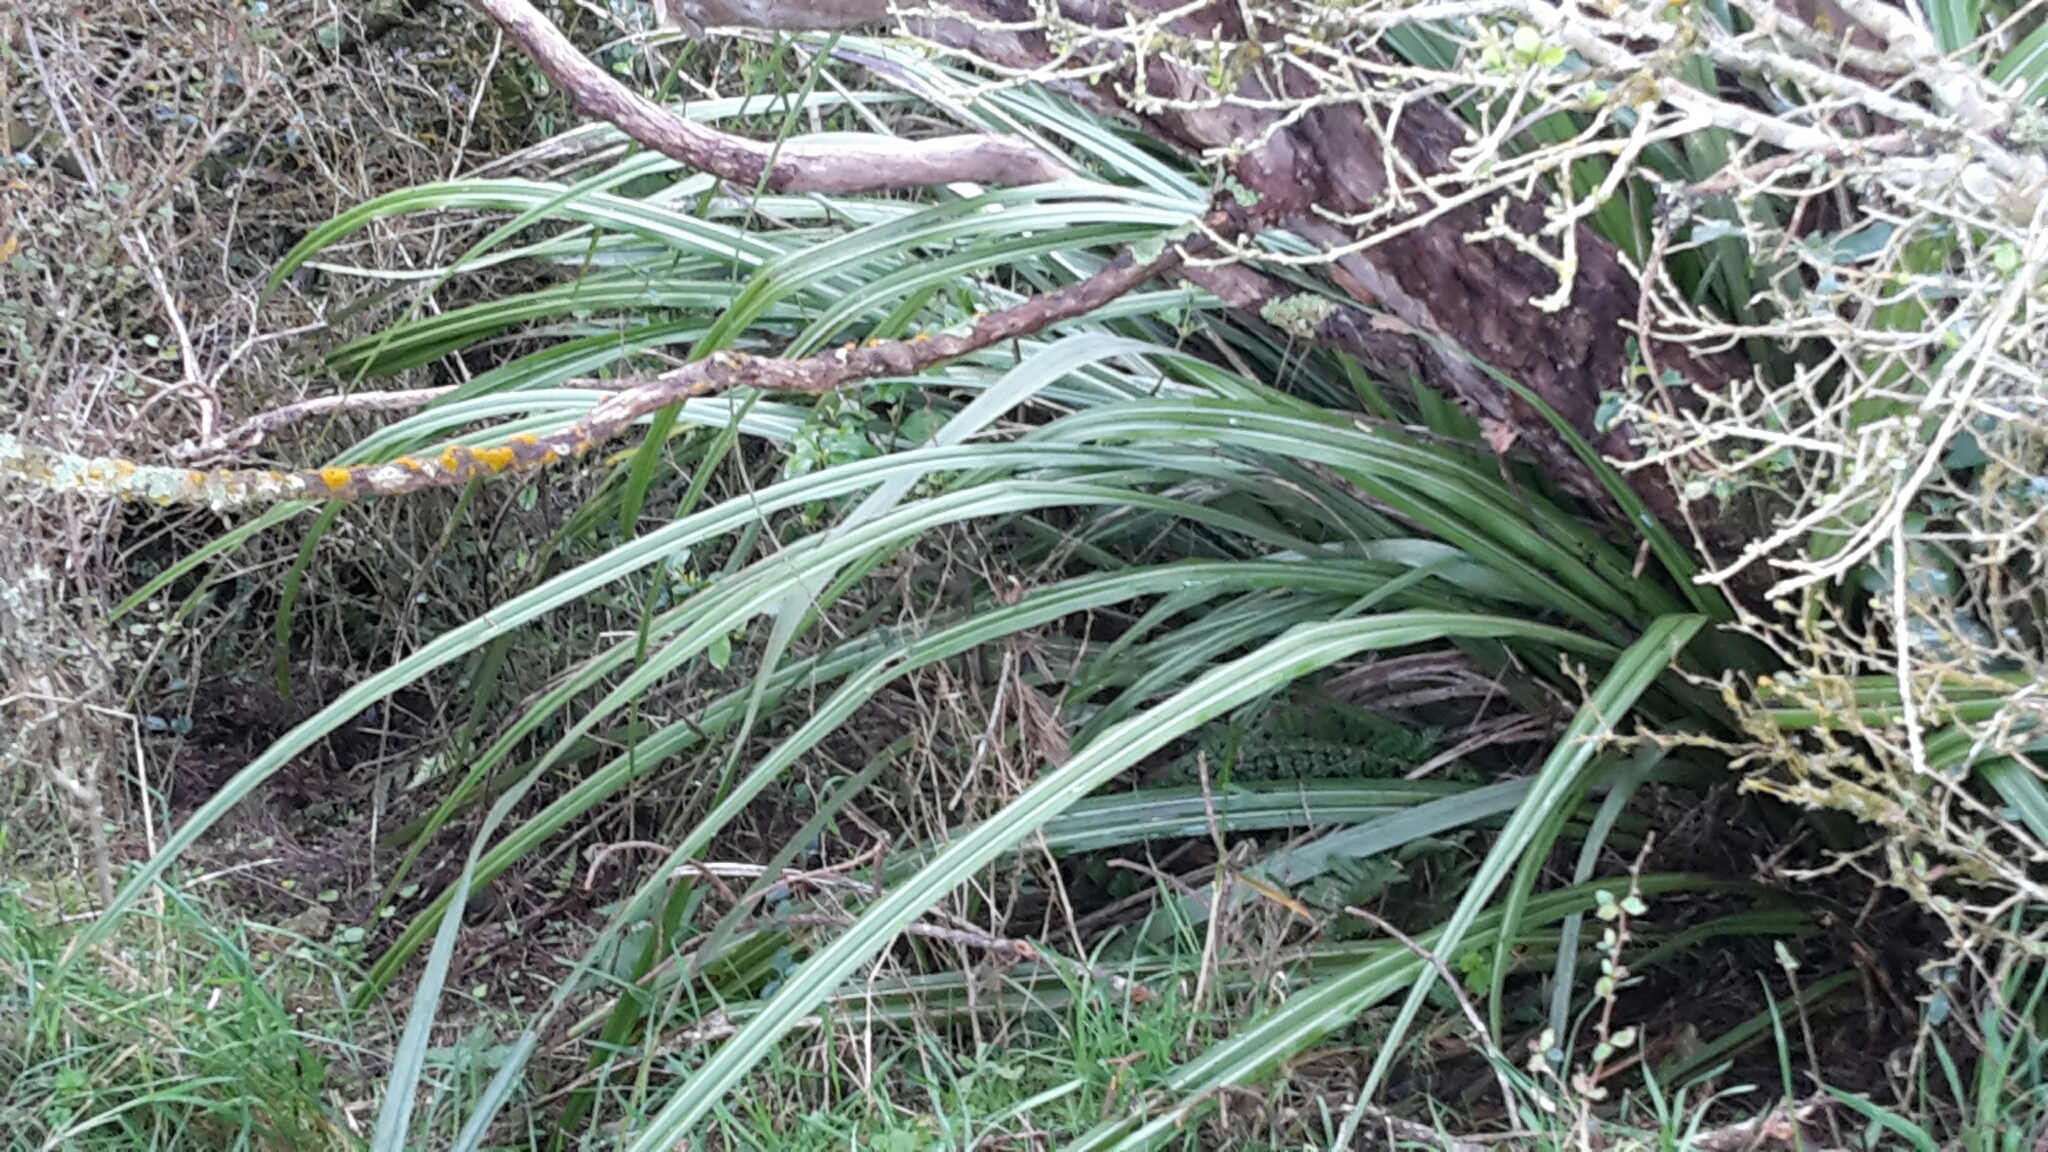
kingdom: Plantae
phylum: Tracheophyta
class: Liliopsida
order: Asparagales
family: Asteliaceae
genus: Astelia
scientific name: Astelia fragrans
